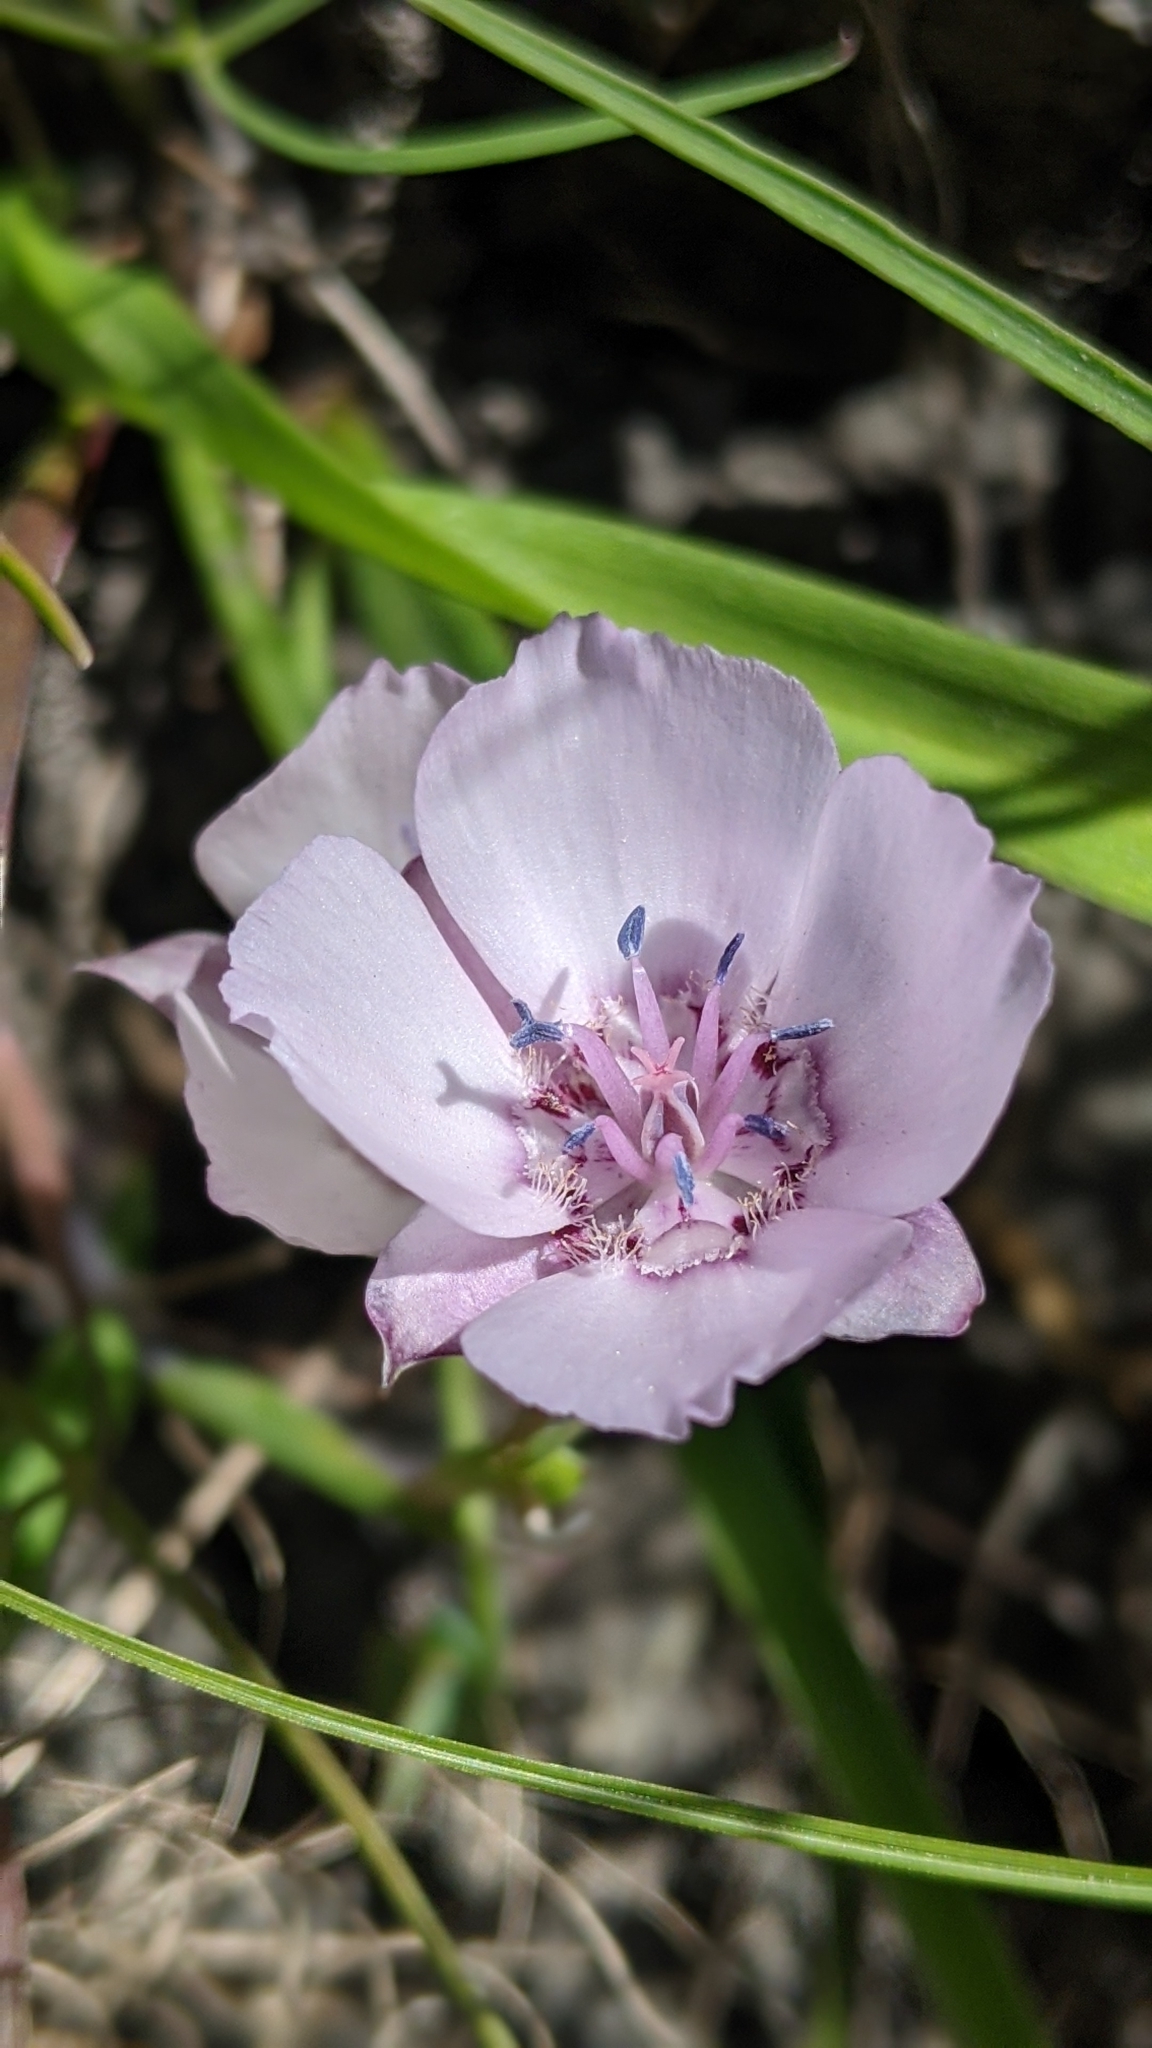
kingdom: Plantae
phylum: Tracheophyta
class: Liliopsida
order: Liliales
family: Liliaceae
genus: Calochortus
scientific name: Calochortus umbellatus
